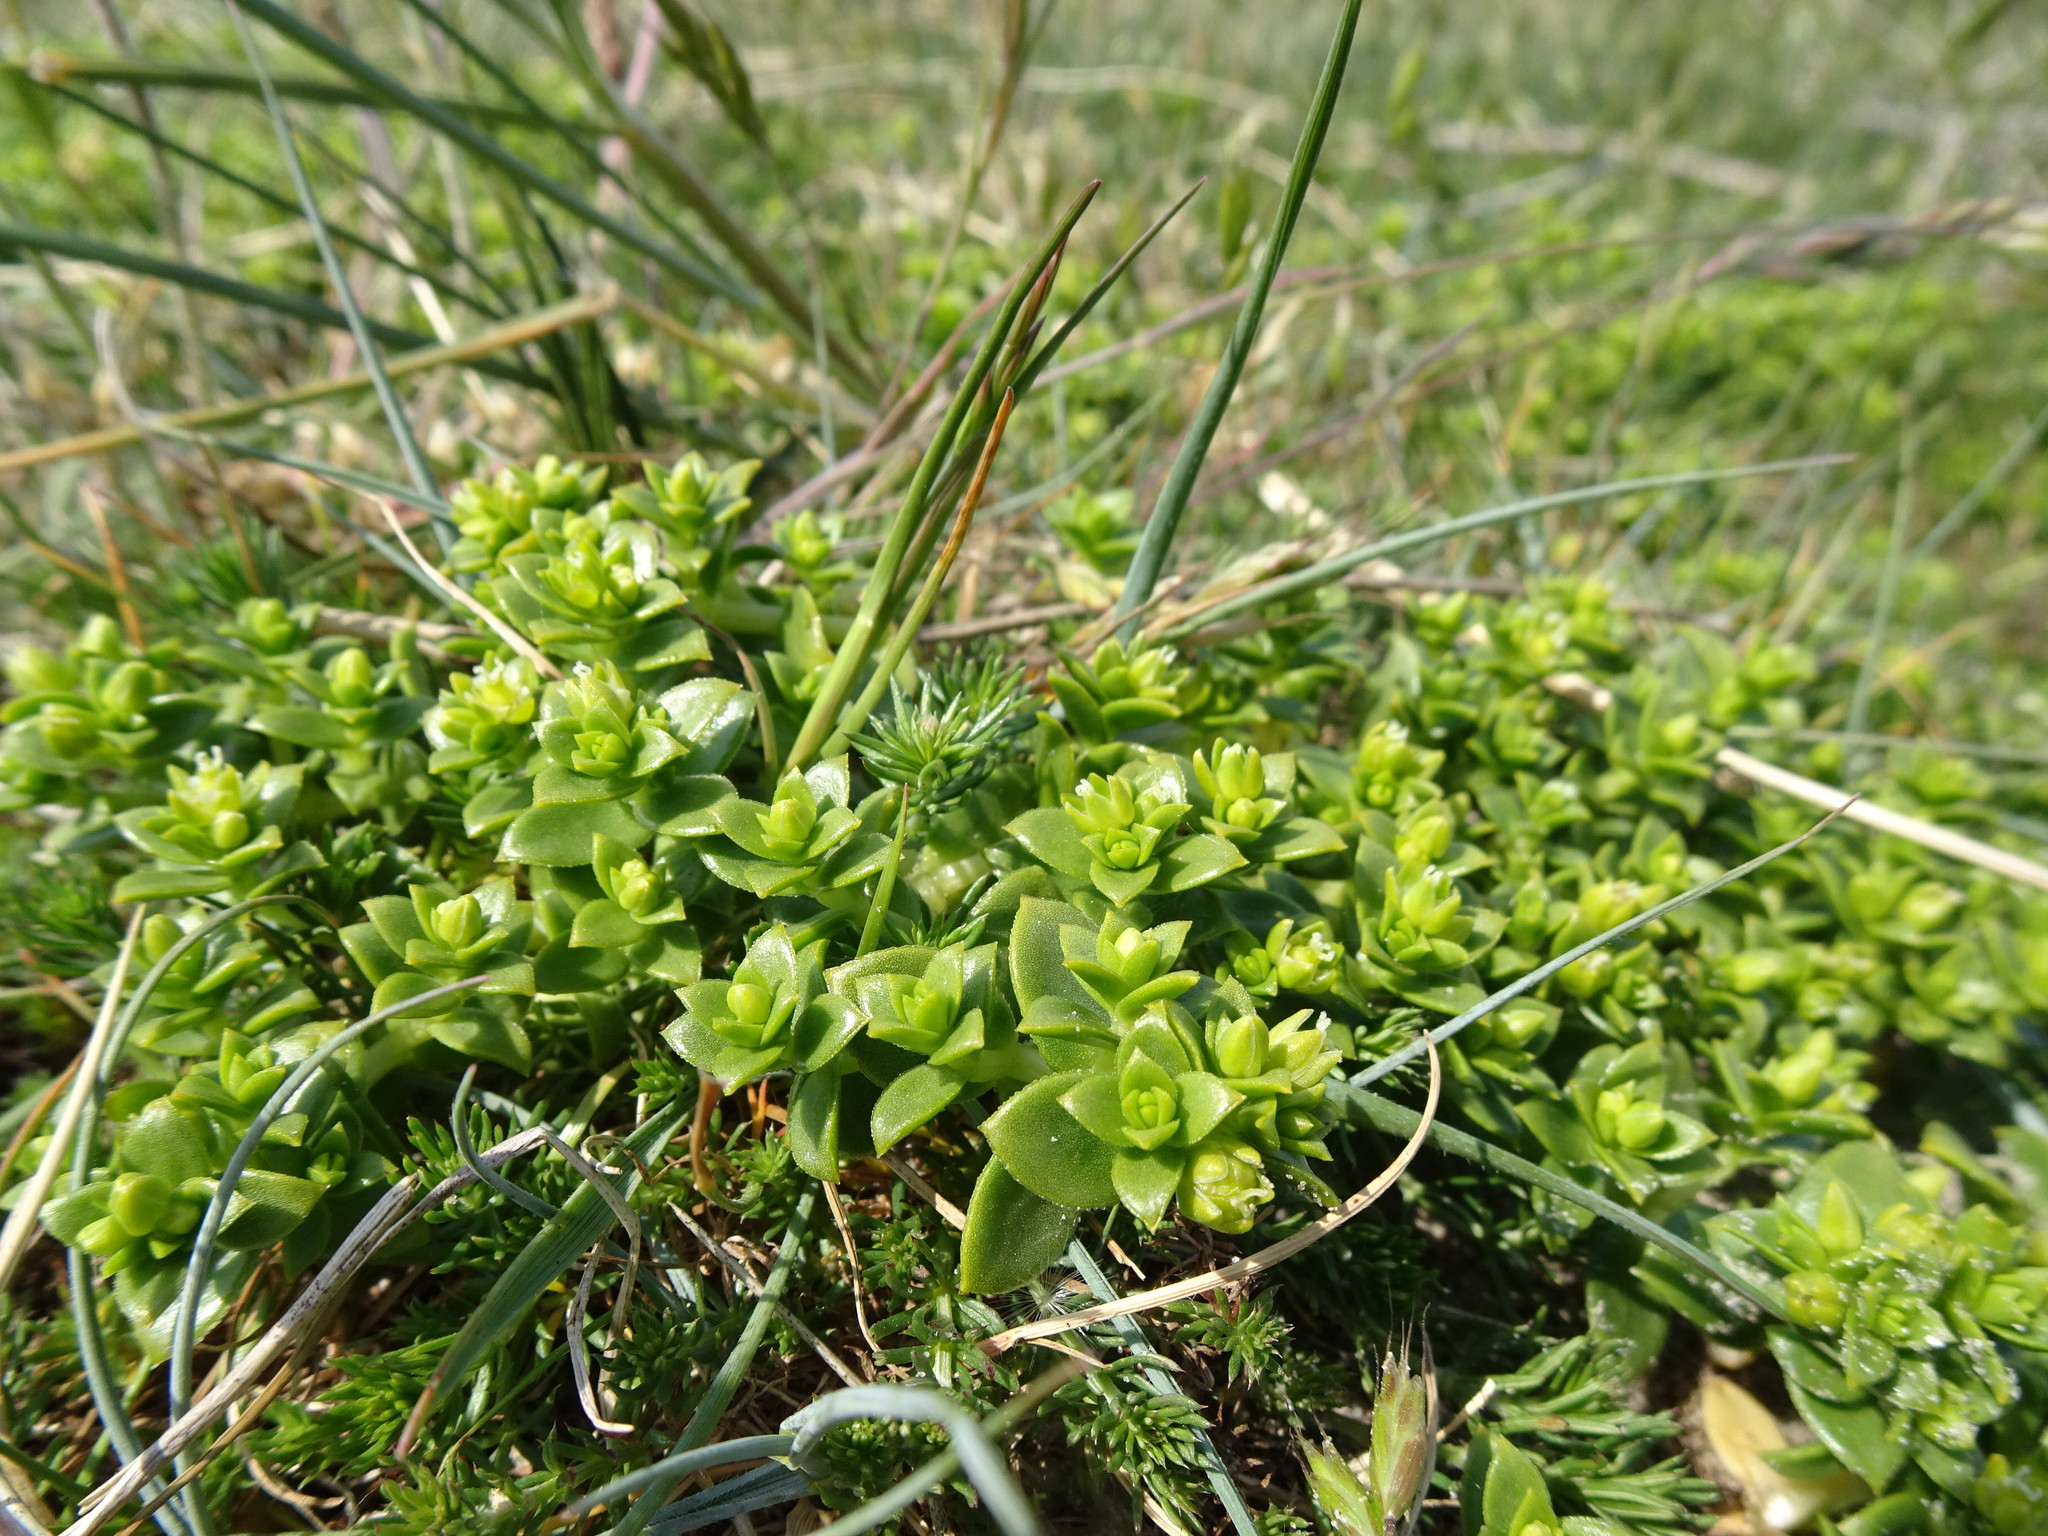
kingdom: Plantae
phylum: Tracheophyta
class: Magnoliopsida
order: Caryophyllales
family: Caryophyllaceae
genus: Honckenya
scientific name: Honckenya peploides
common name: Sea sandwort
